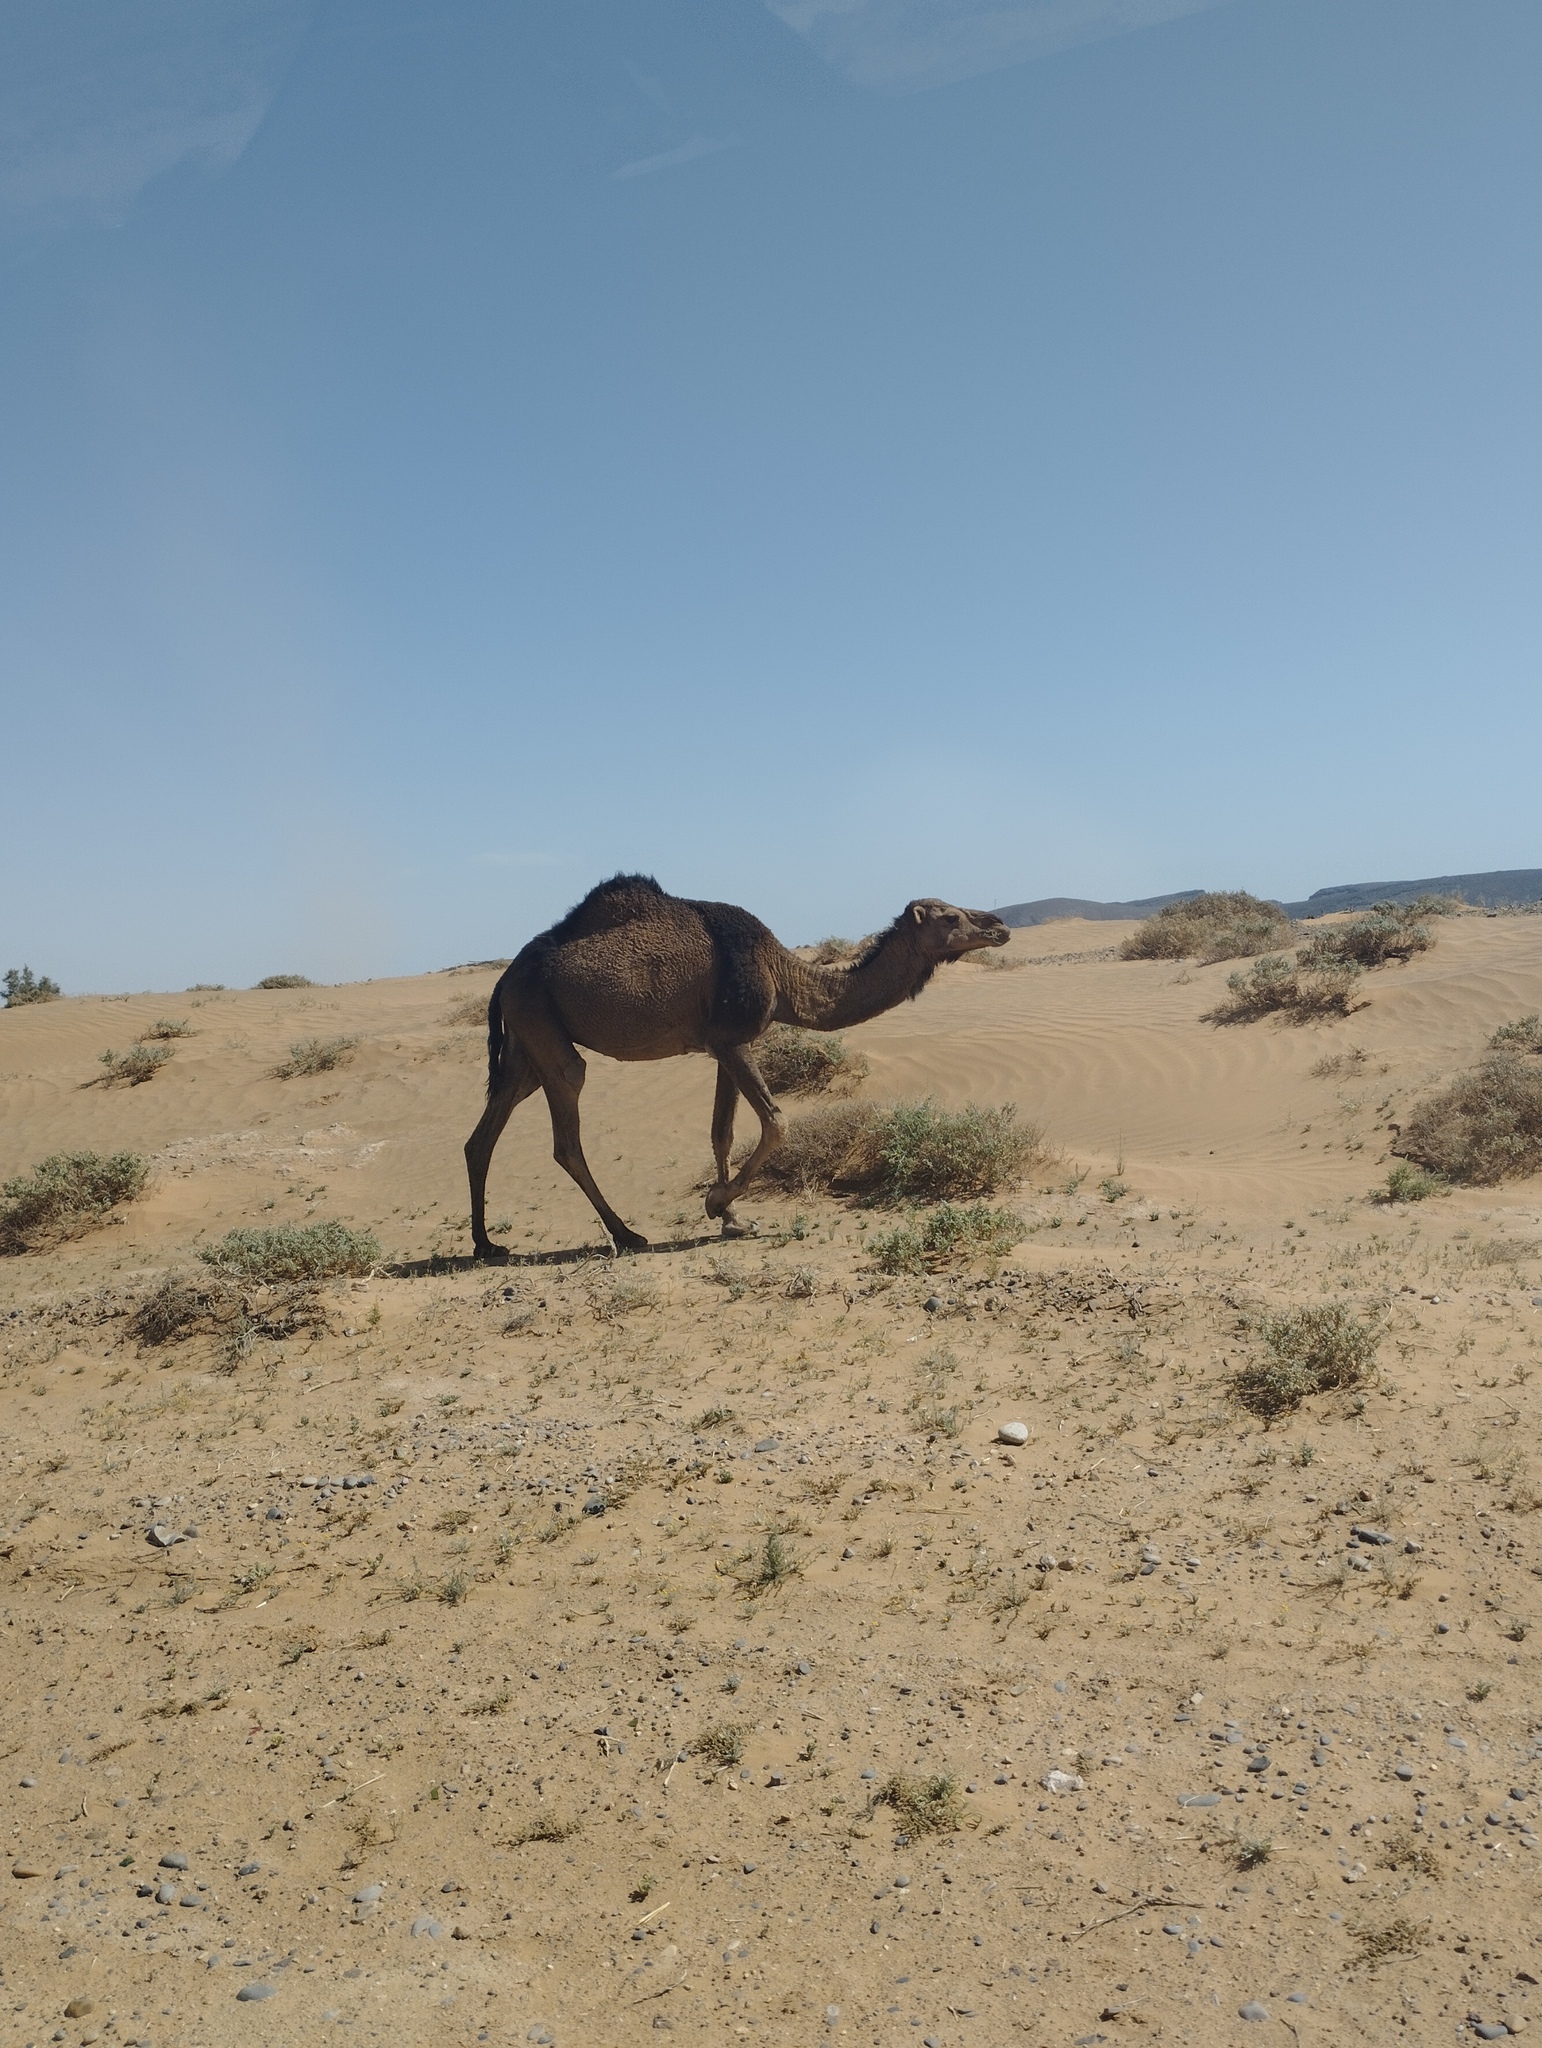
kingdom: Animalia
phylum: Chordata
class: Mammalia
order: Artiodactyla
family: Camelidae
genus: Camelus
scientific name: Camelus dromedarius
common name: One-humped camel
